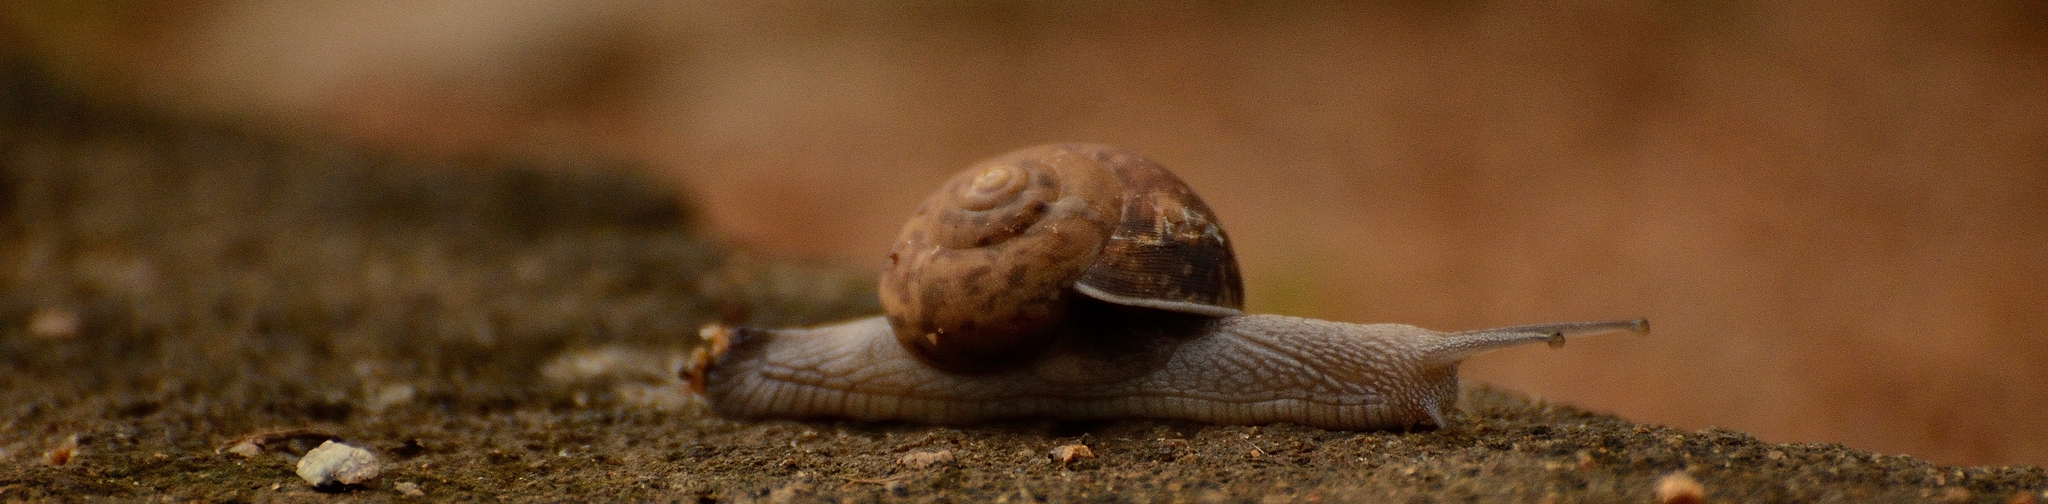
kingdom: Animalia
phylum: Mollusca
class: Gastropoda
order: Stylommatophora
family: Ariophantidae
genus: Ariophanta
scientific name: Ariophanta maderaspatana
